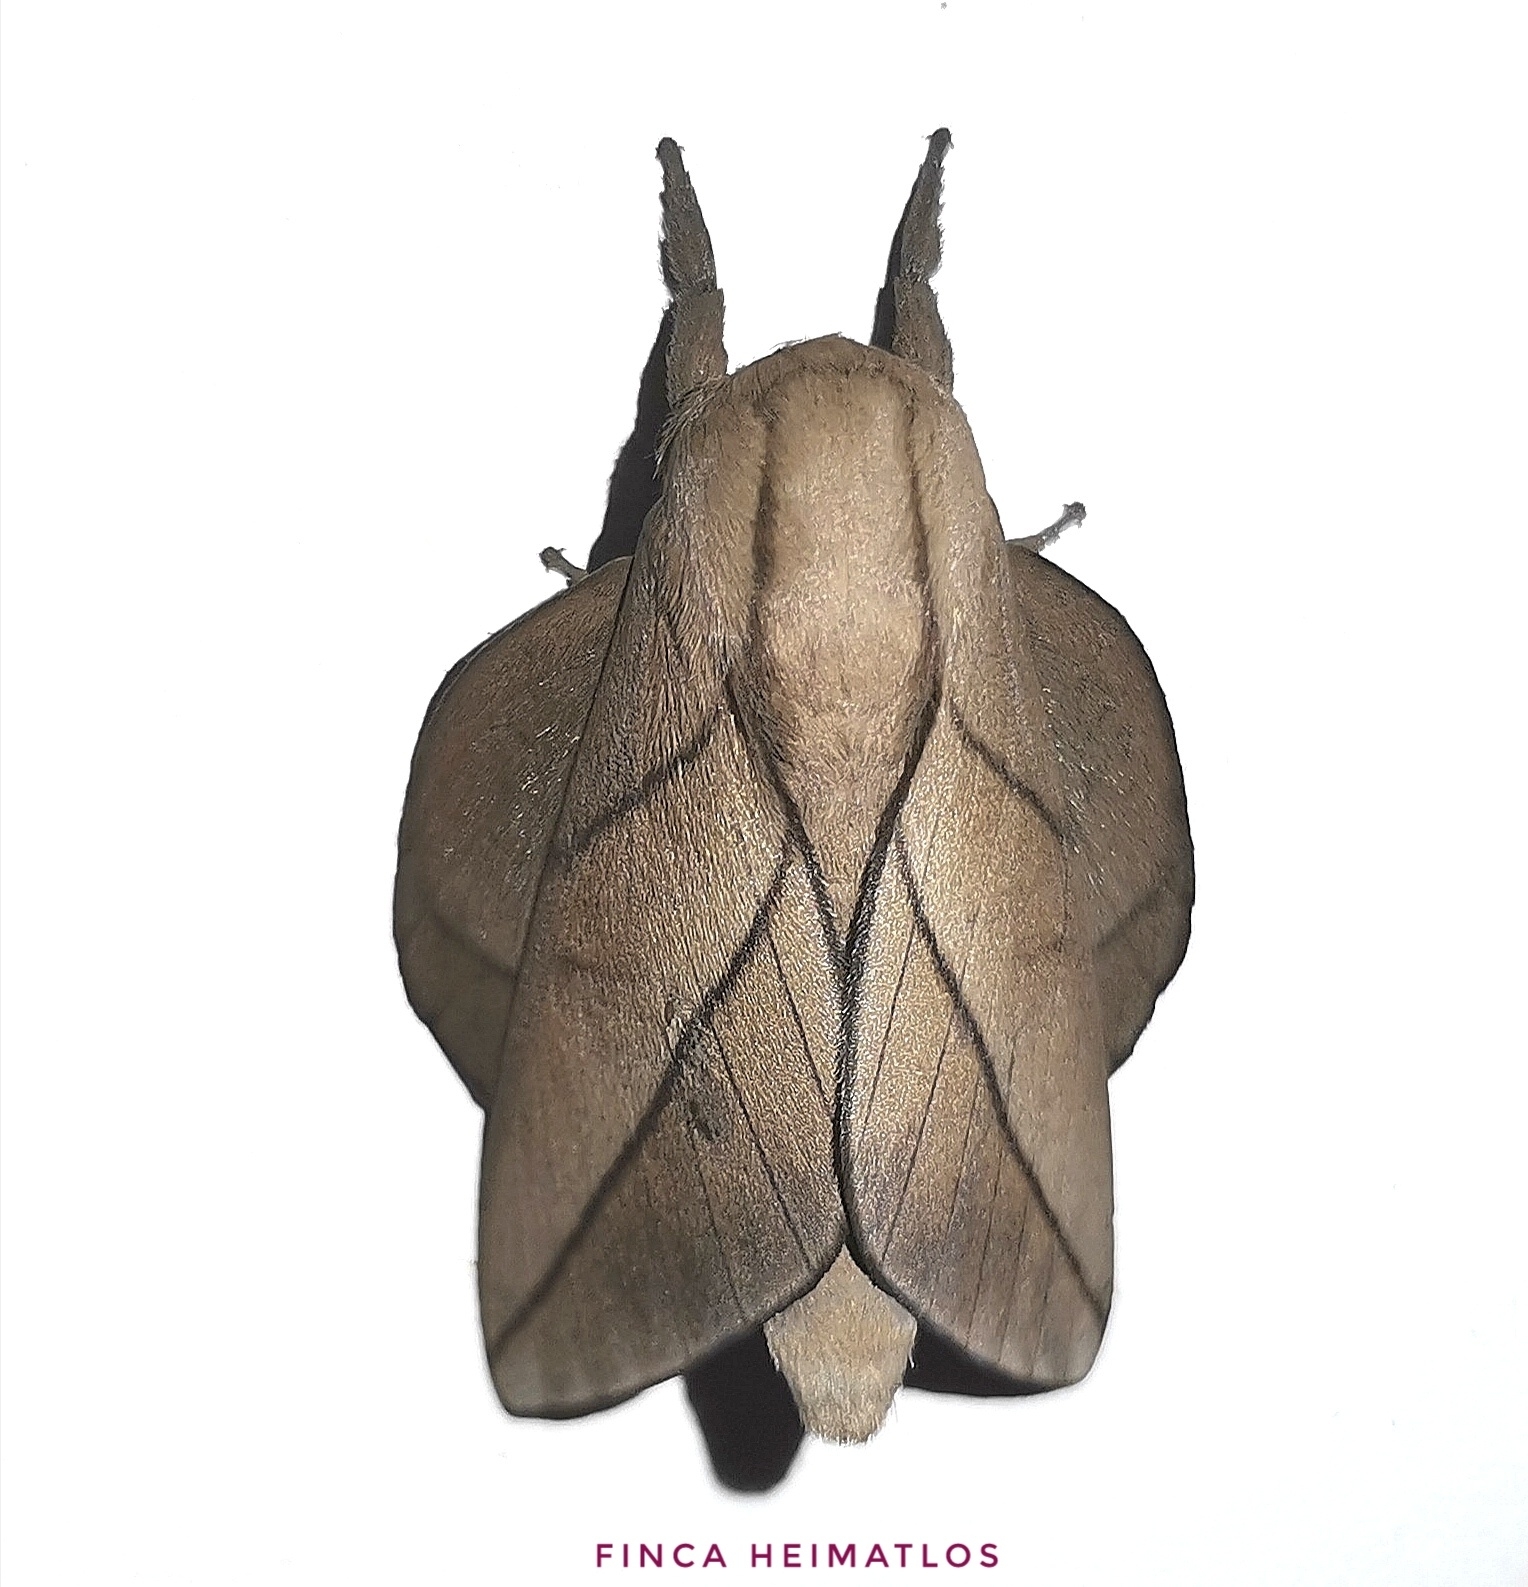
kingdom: Animalia
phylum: Arthropoda
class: Insecta
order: Lepidoptera
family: Saturniidae
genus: Citioica
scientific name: Citioica anthonilis
